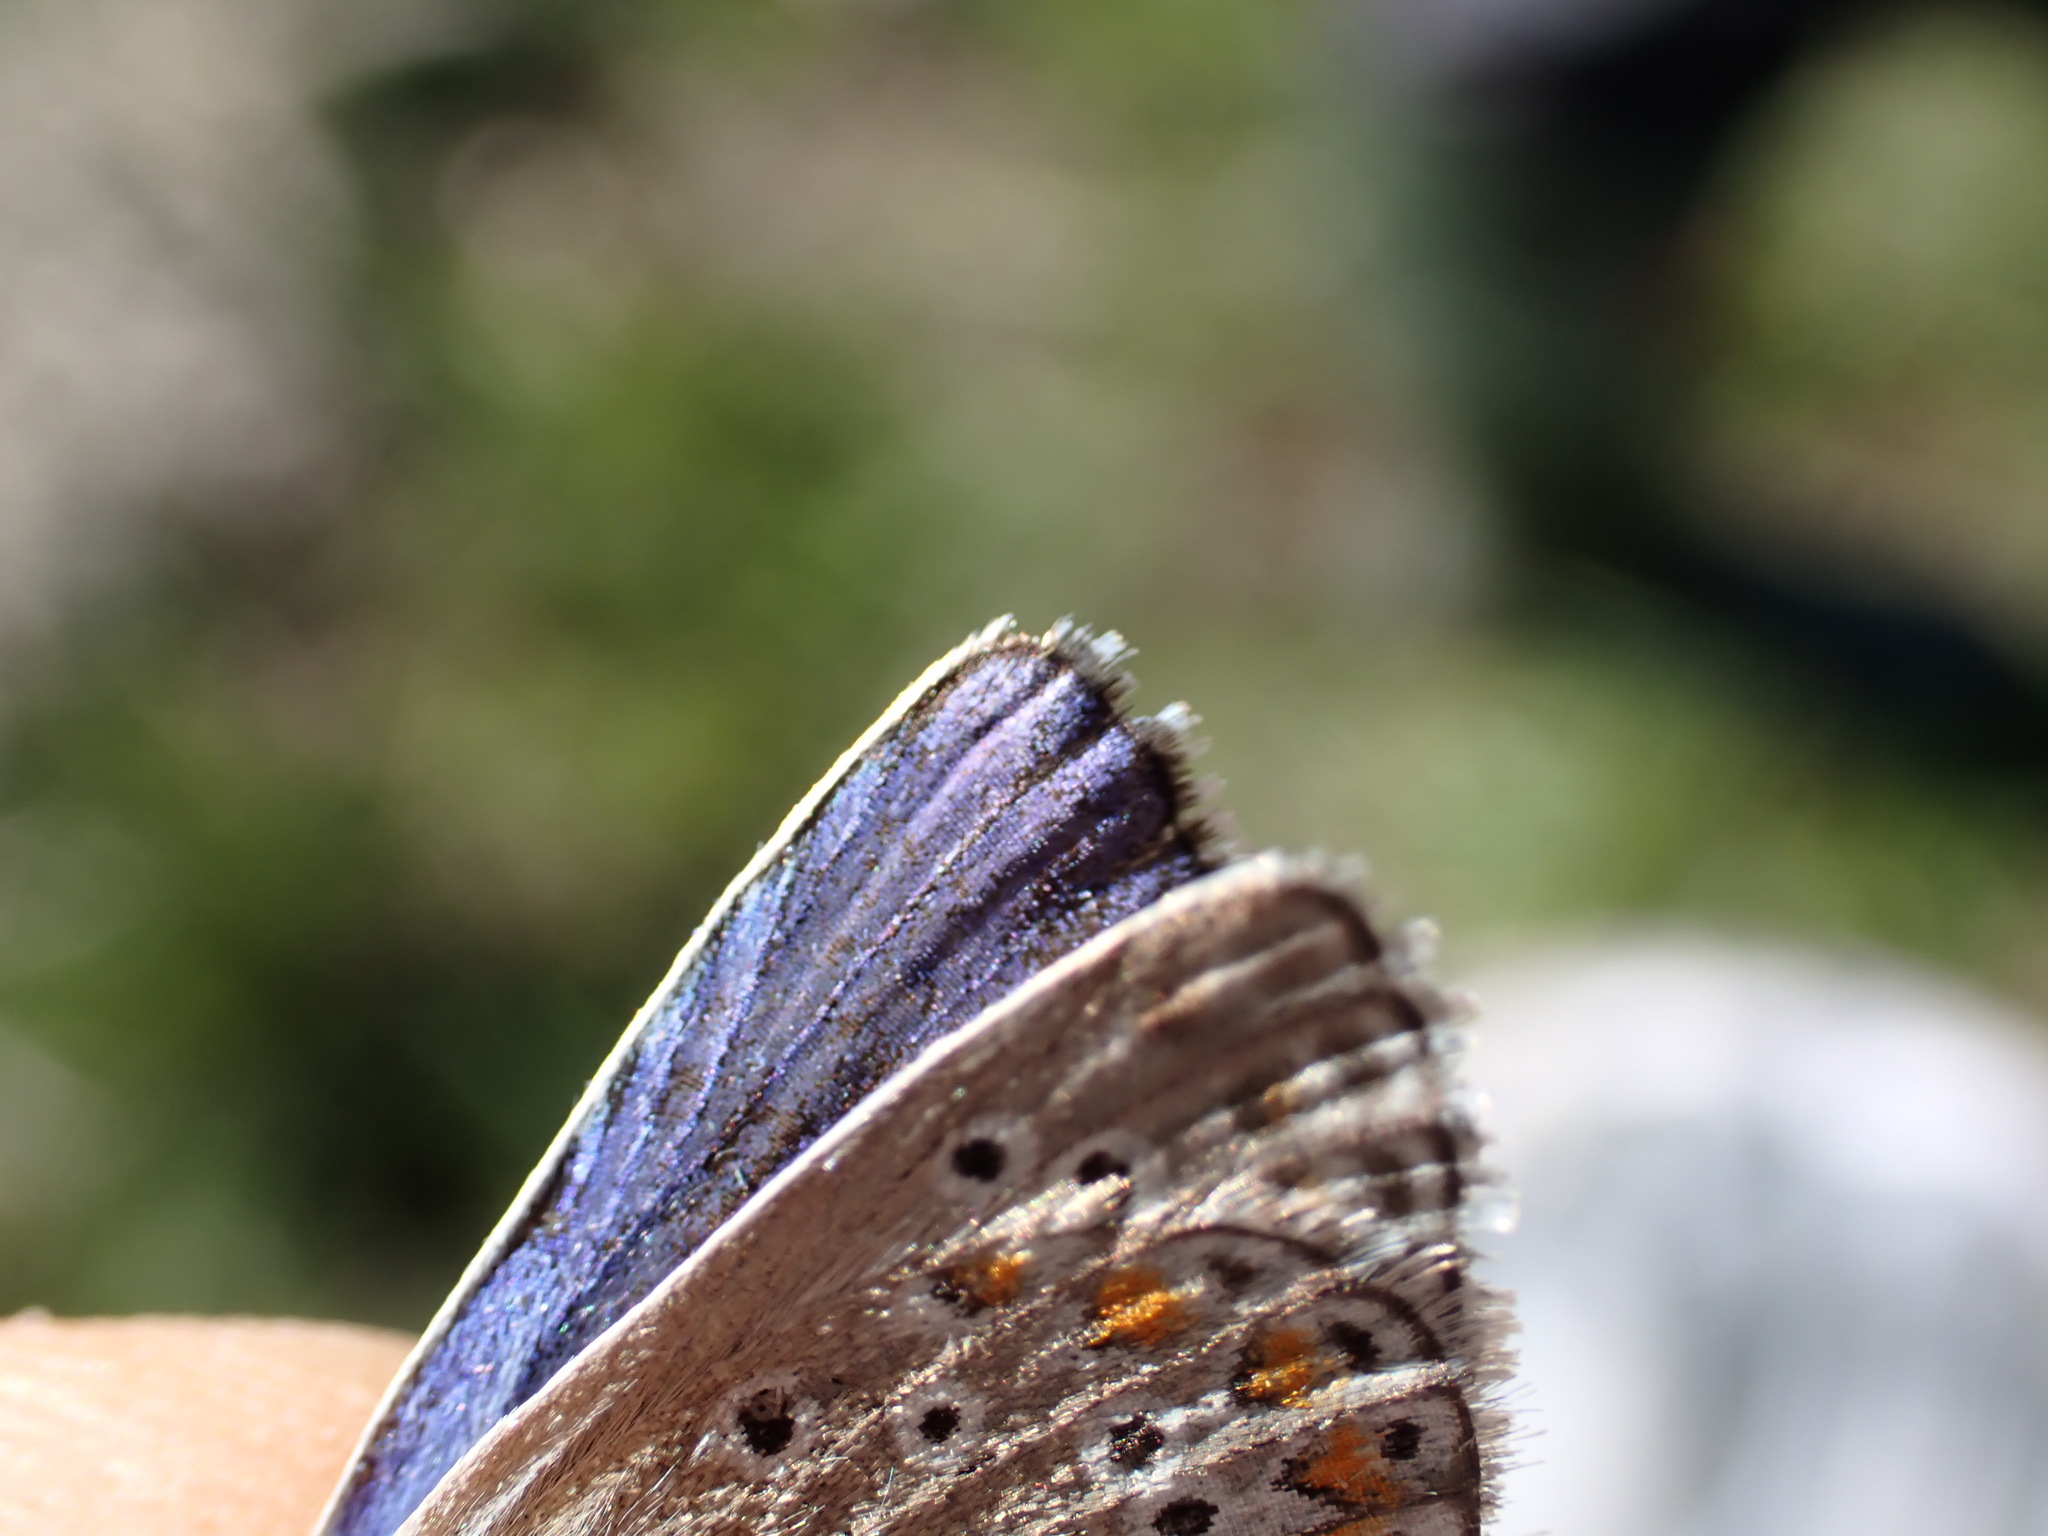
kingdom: Animalia
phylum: Arthropoda
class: Insecta
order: Lepidoptera
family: Lycaenidae
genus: Polyommatus
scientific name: Polyommatus icarus
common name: Common blue
